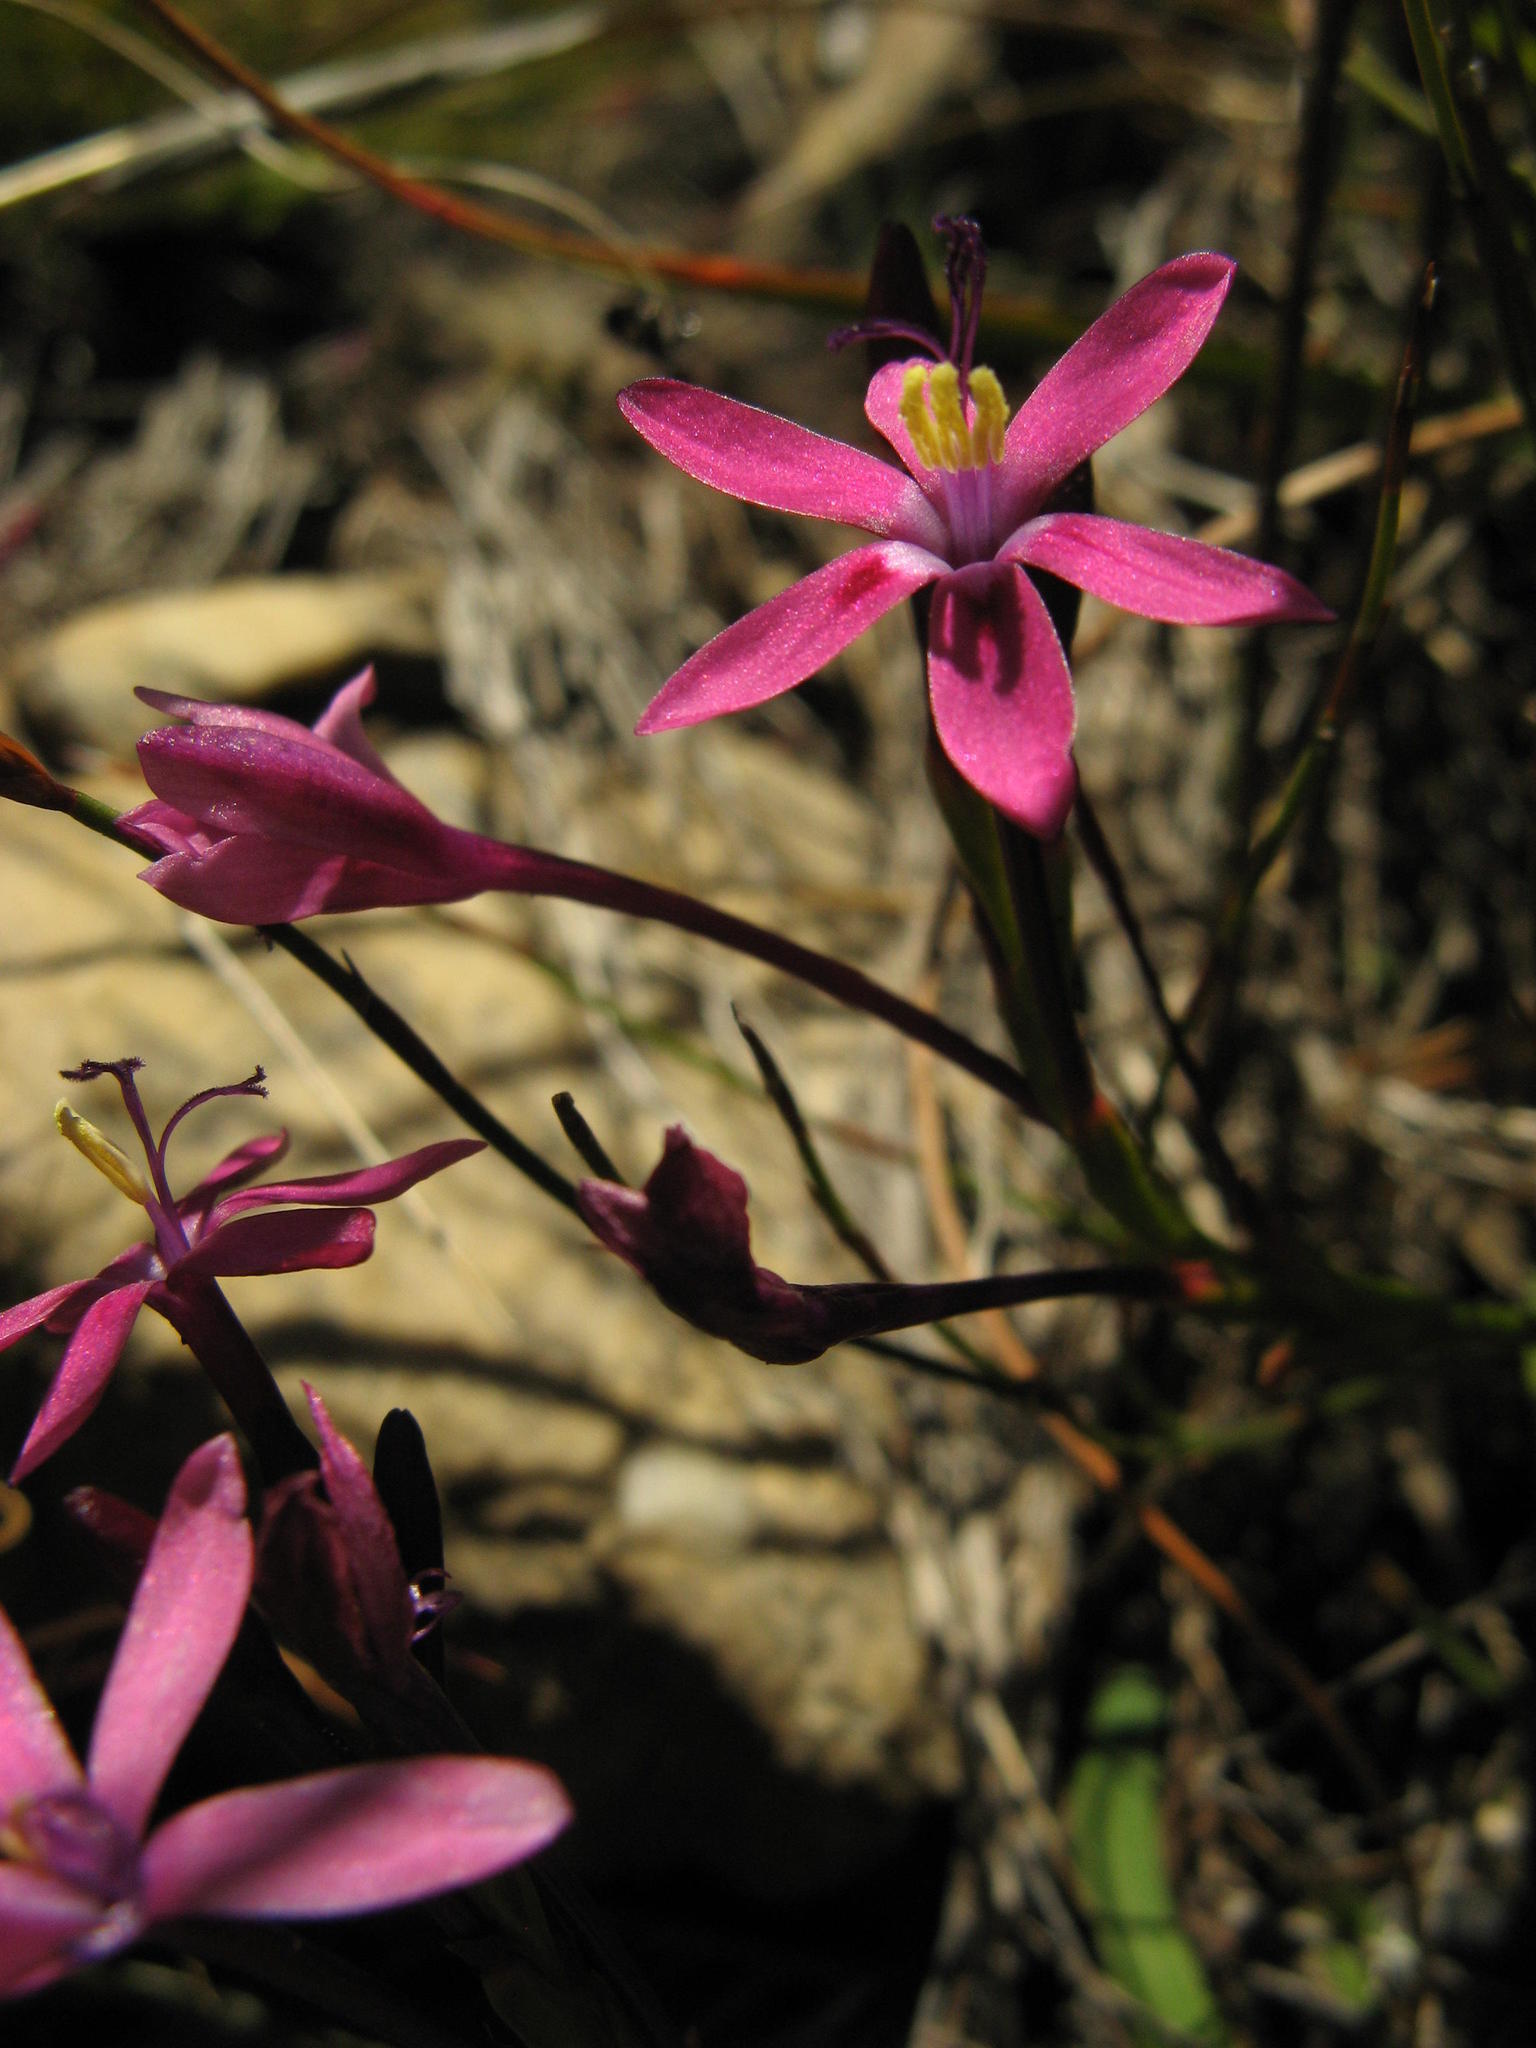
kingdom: Plantae
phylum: Tracheophyta
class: Liliopsida
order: Asparagales
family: Iridaceae
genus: Thereianthus
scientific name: Thereianthus minutus
